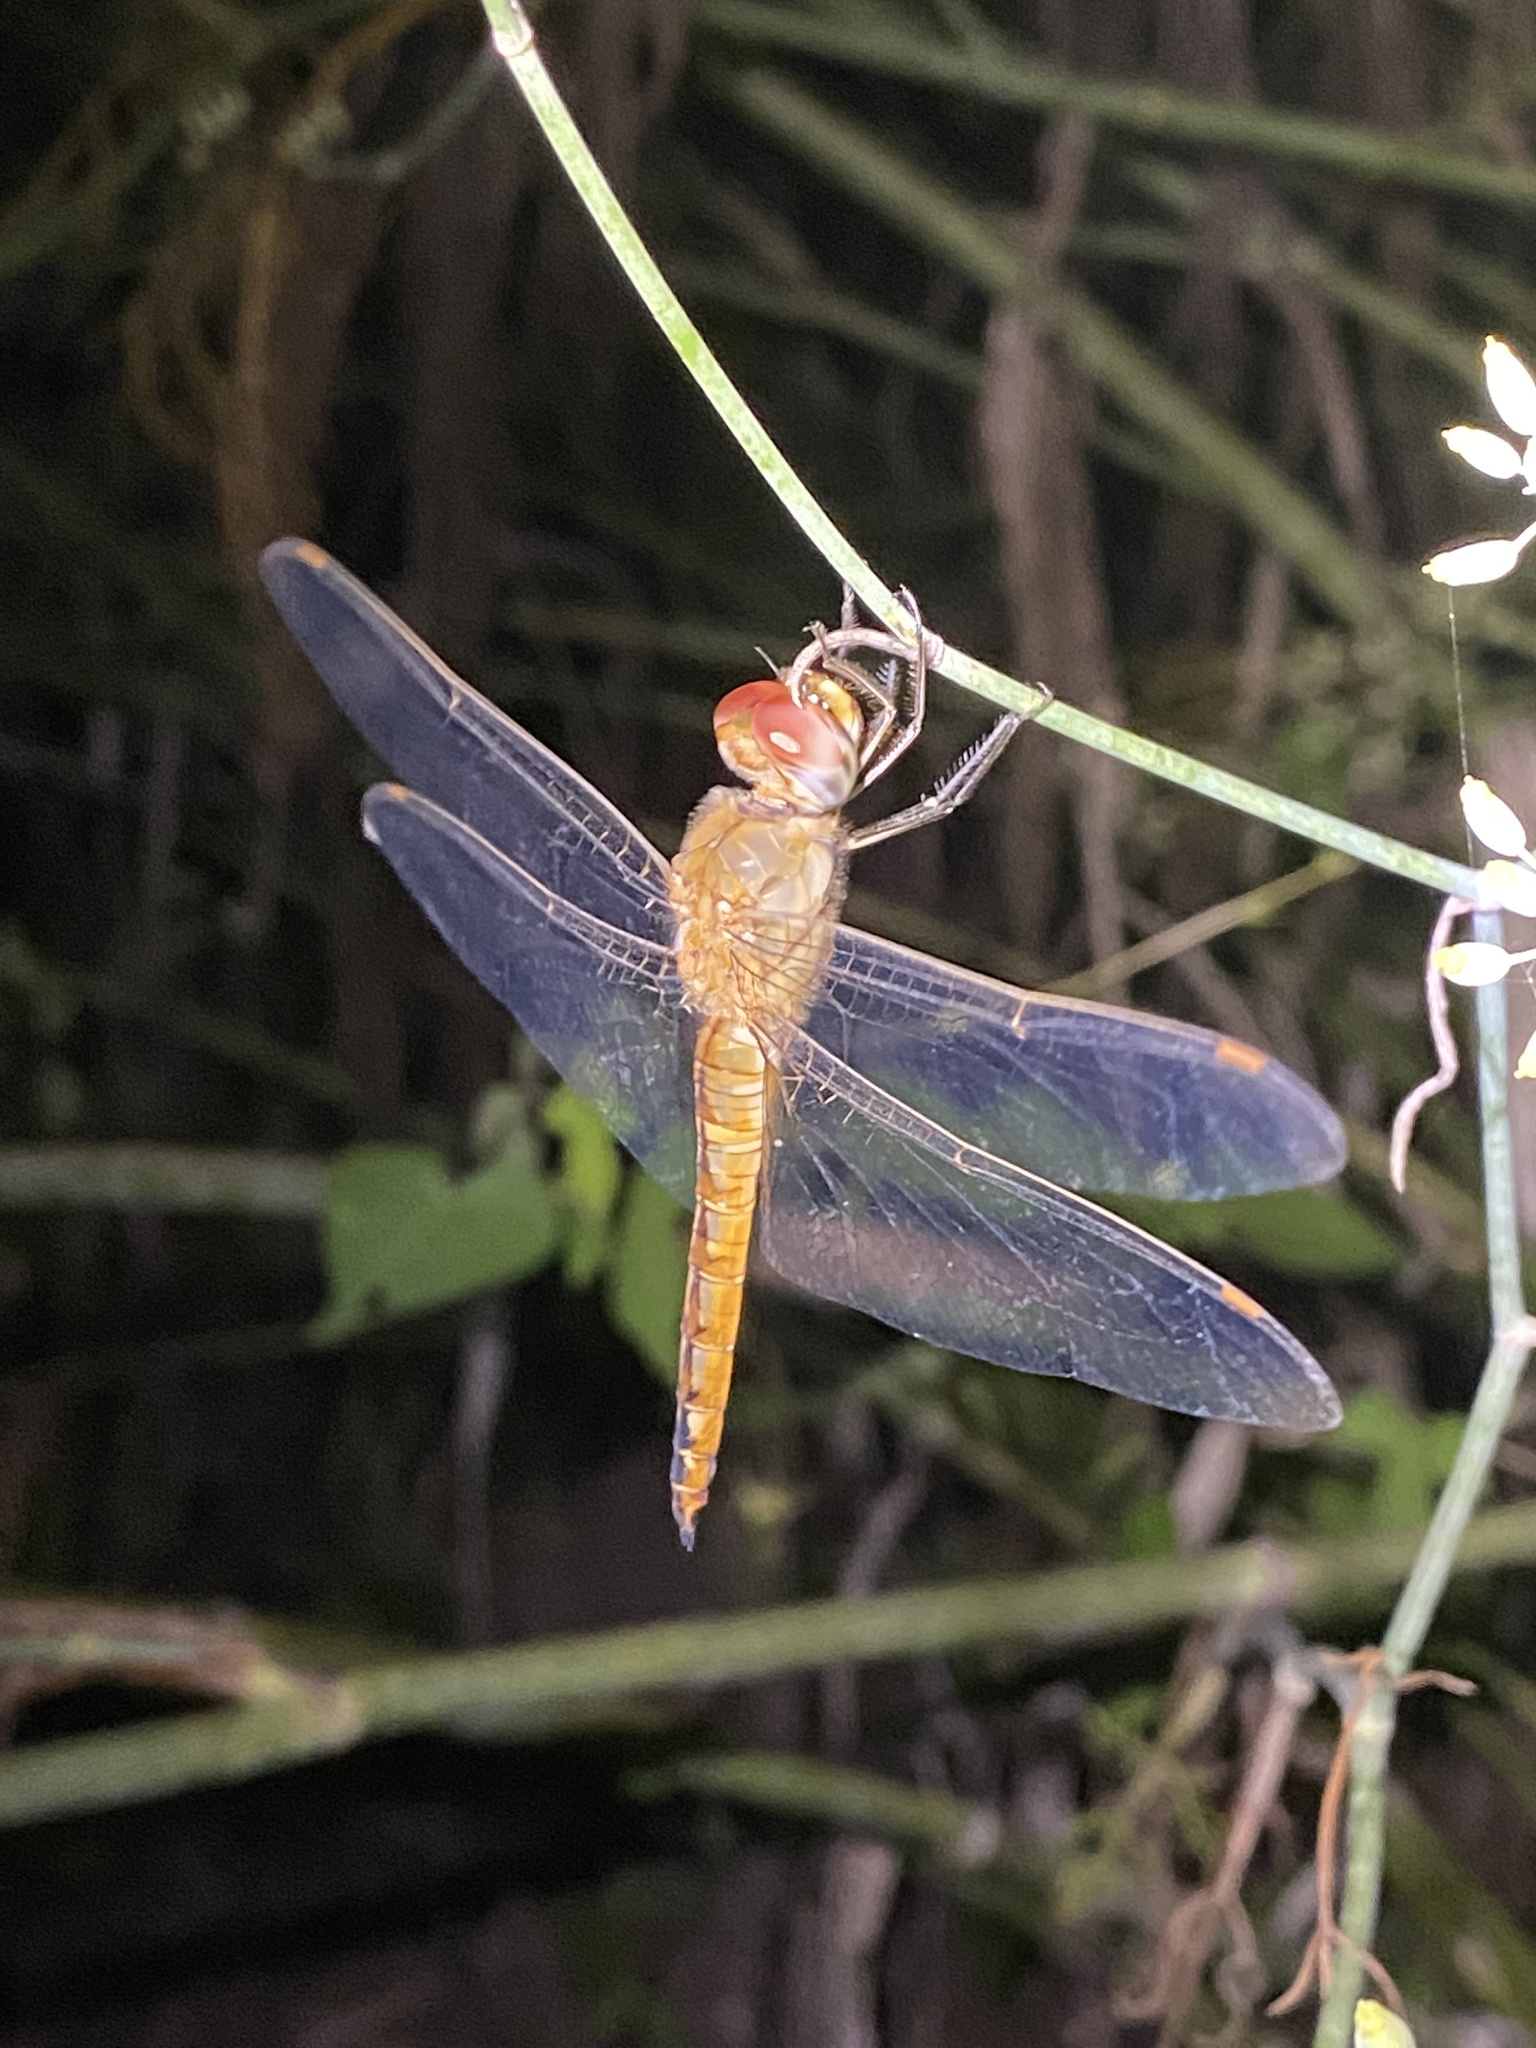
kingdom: Animalia
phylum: Arthropoda
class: Insecta
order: Odonata
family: Libellulidae
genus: Pantala
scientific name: Pantala flavescens
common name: Wandering glider
